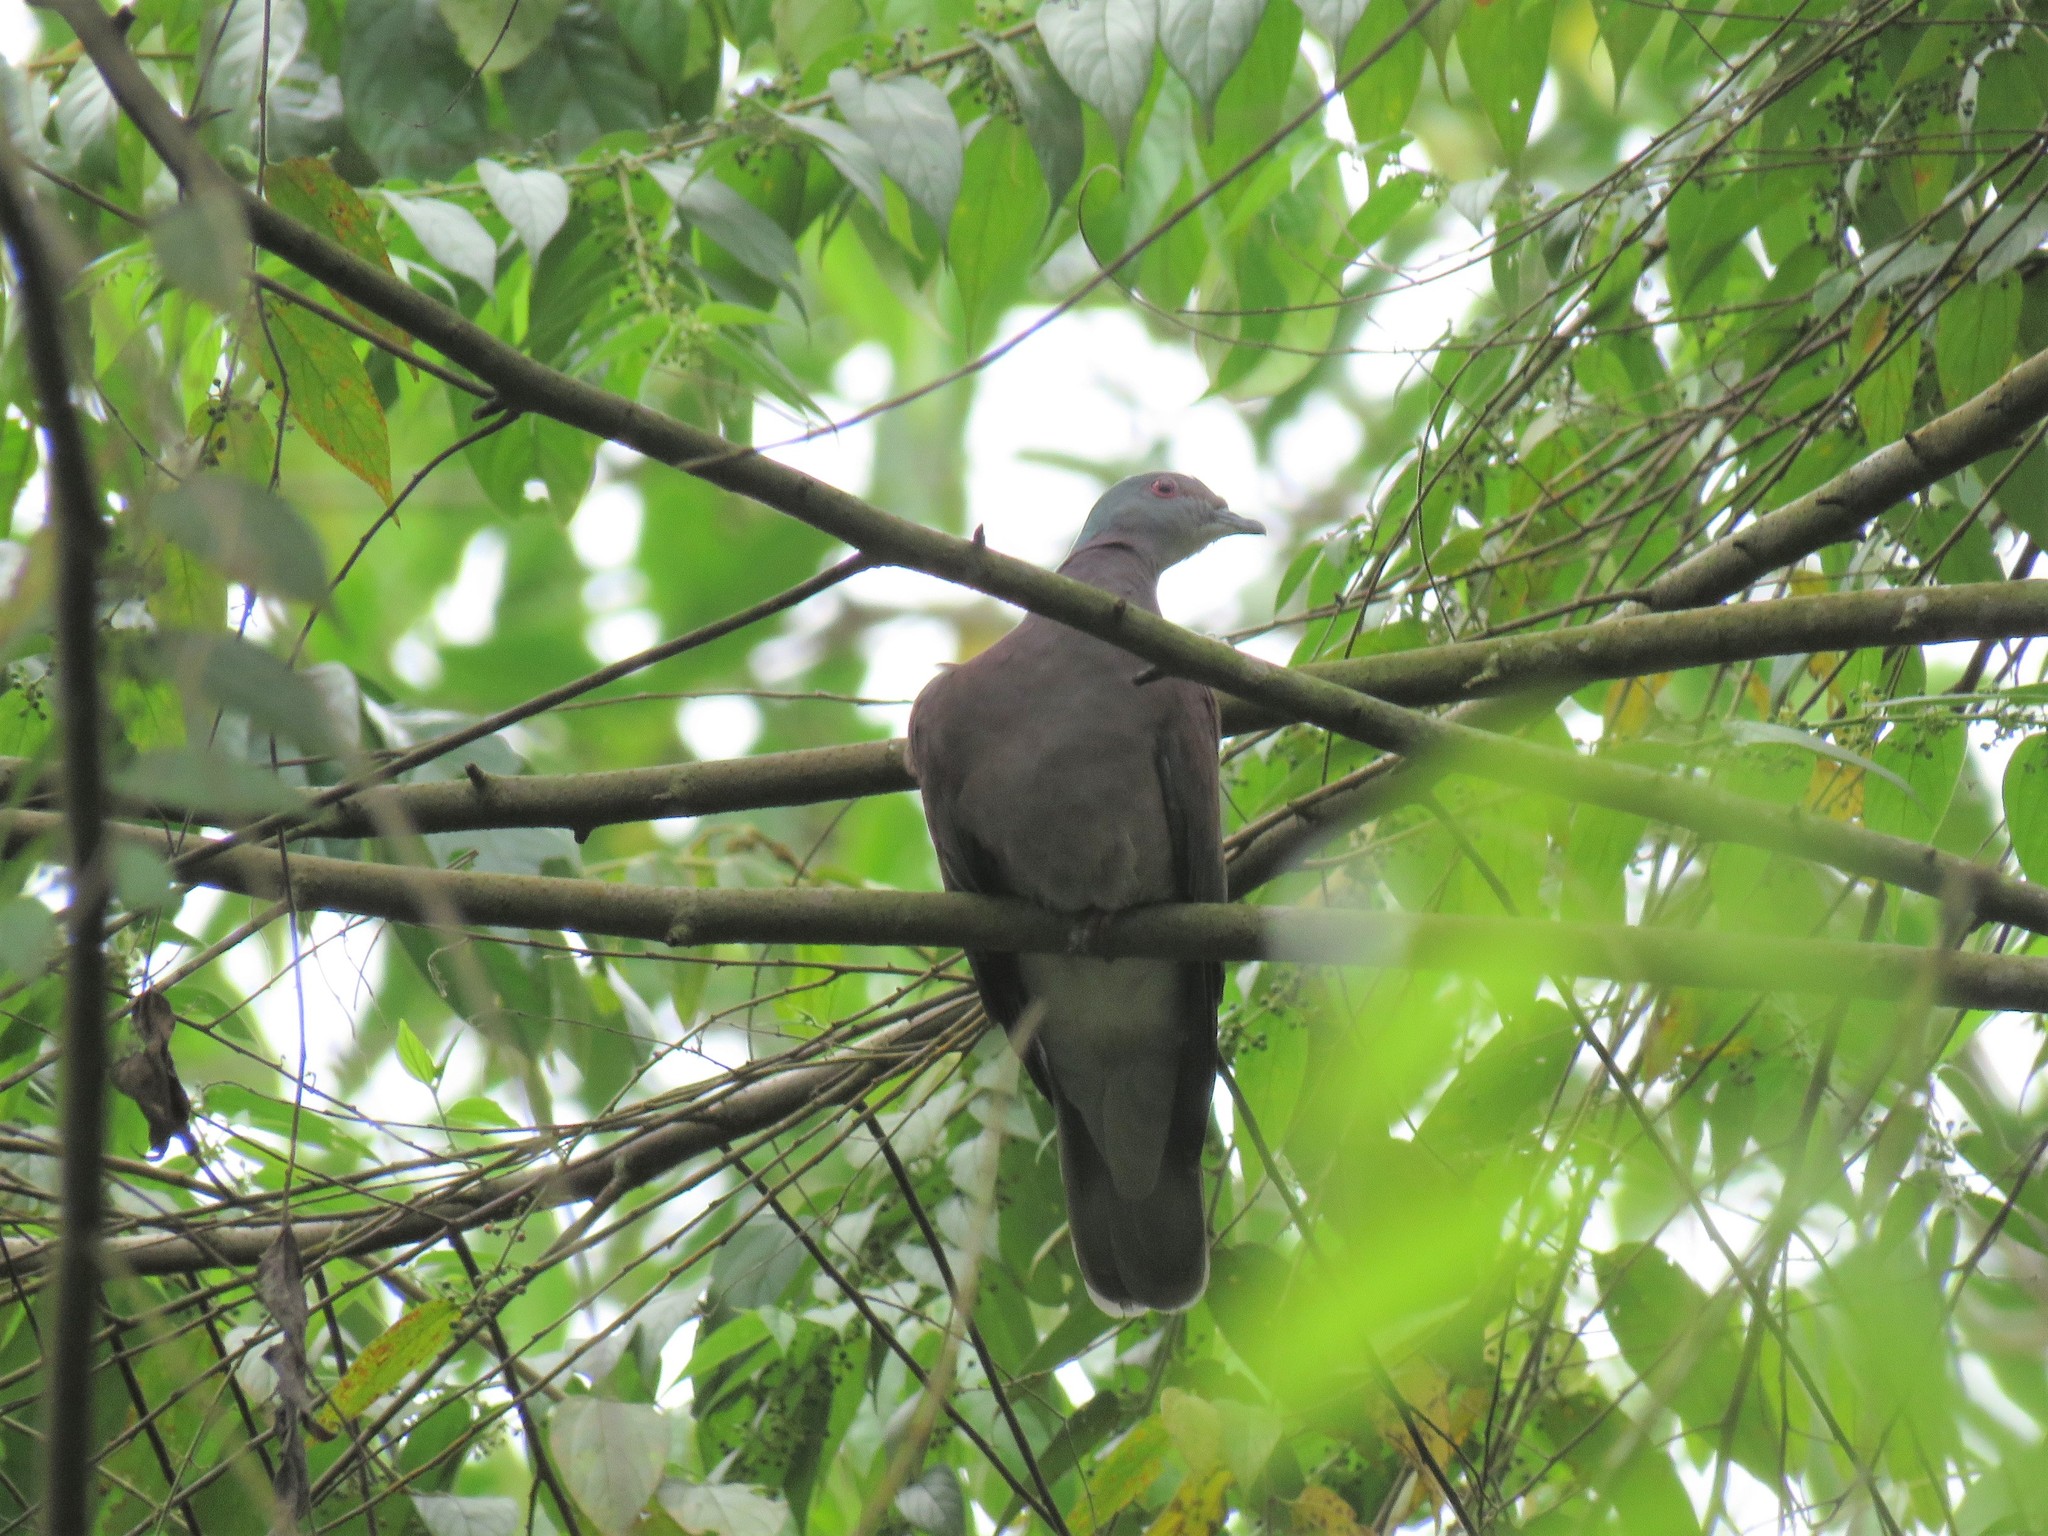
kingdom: Animalia
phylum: Chordata
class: Aves
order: Columbiformes
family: Columbidae
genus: Patagioenas
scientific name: Patagioenas cayennensis
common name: Pale-vented pigeon
